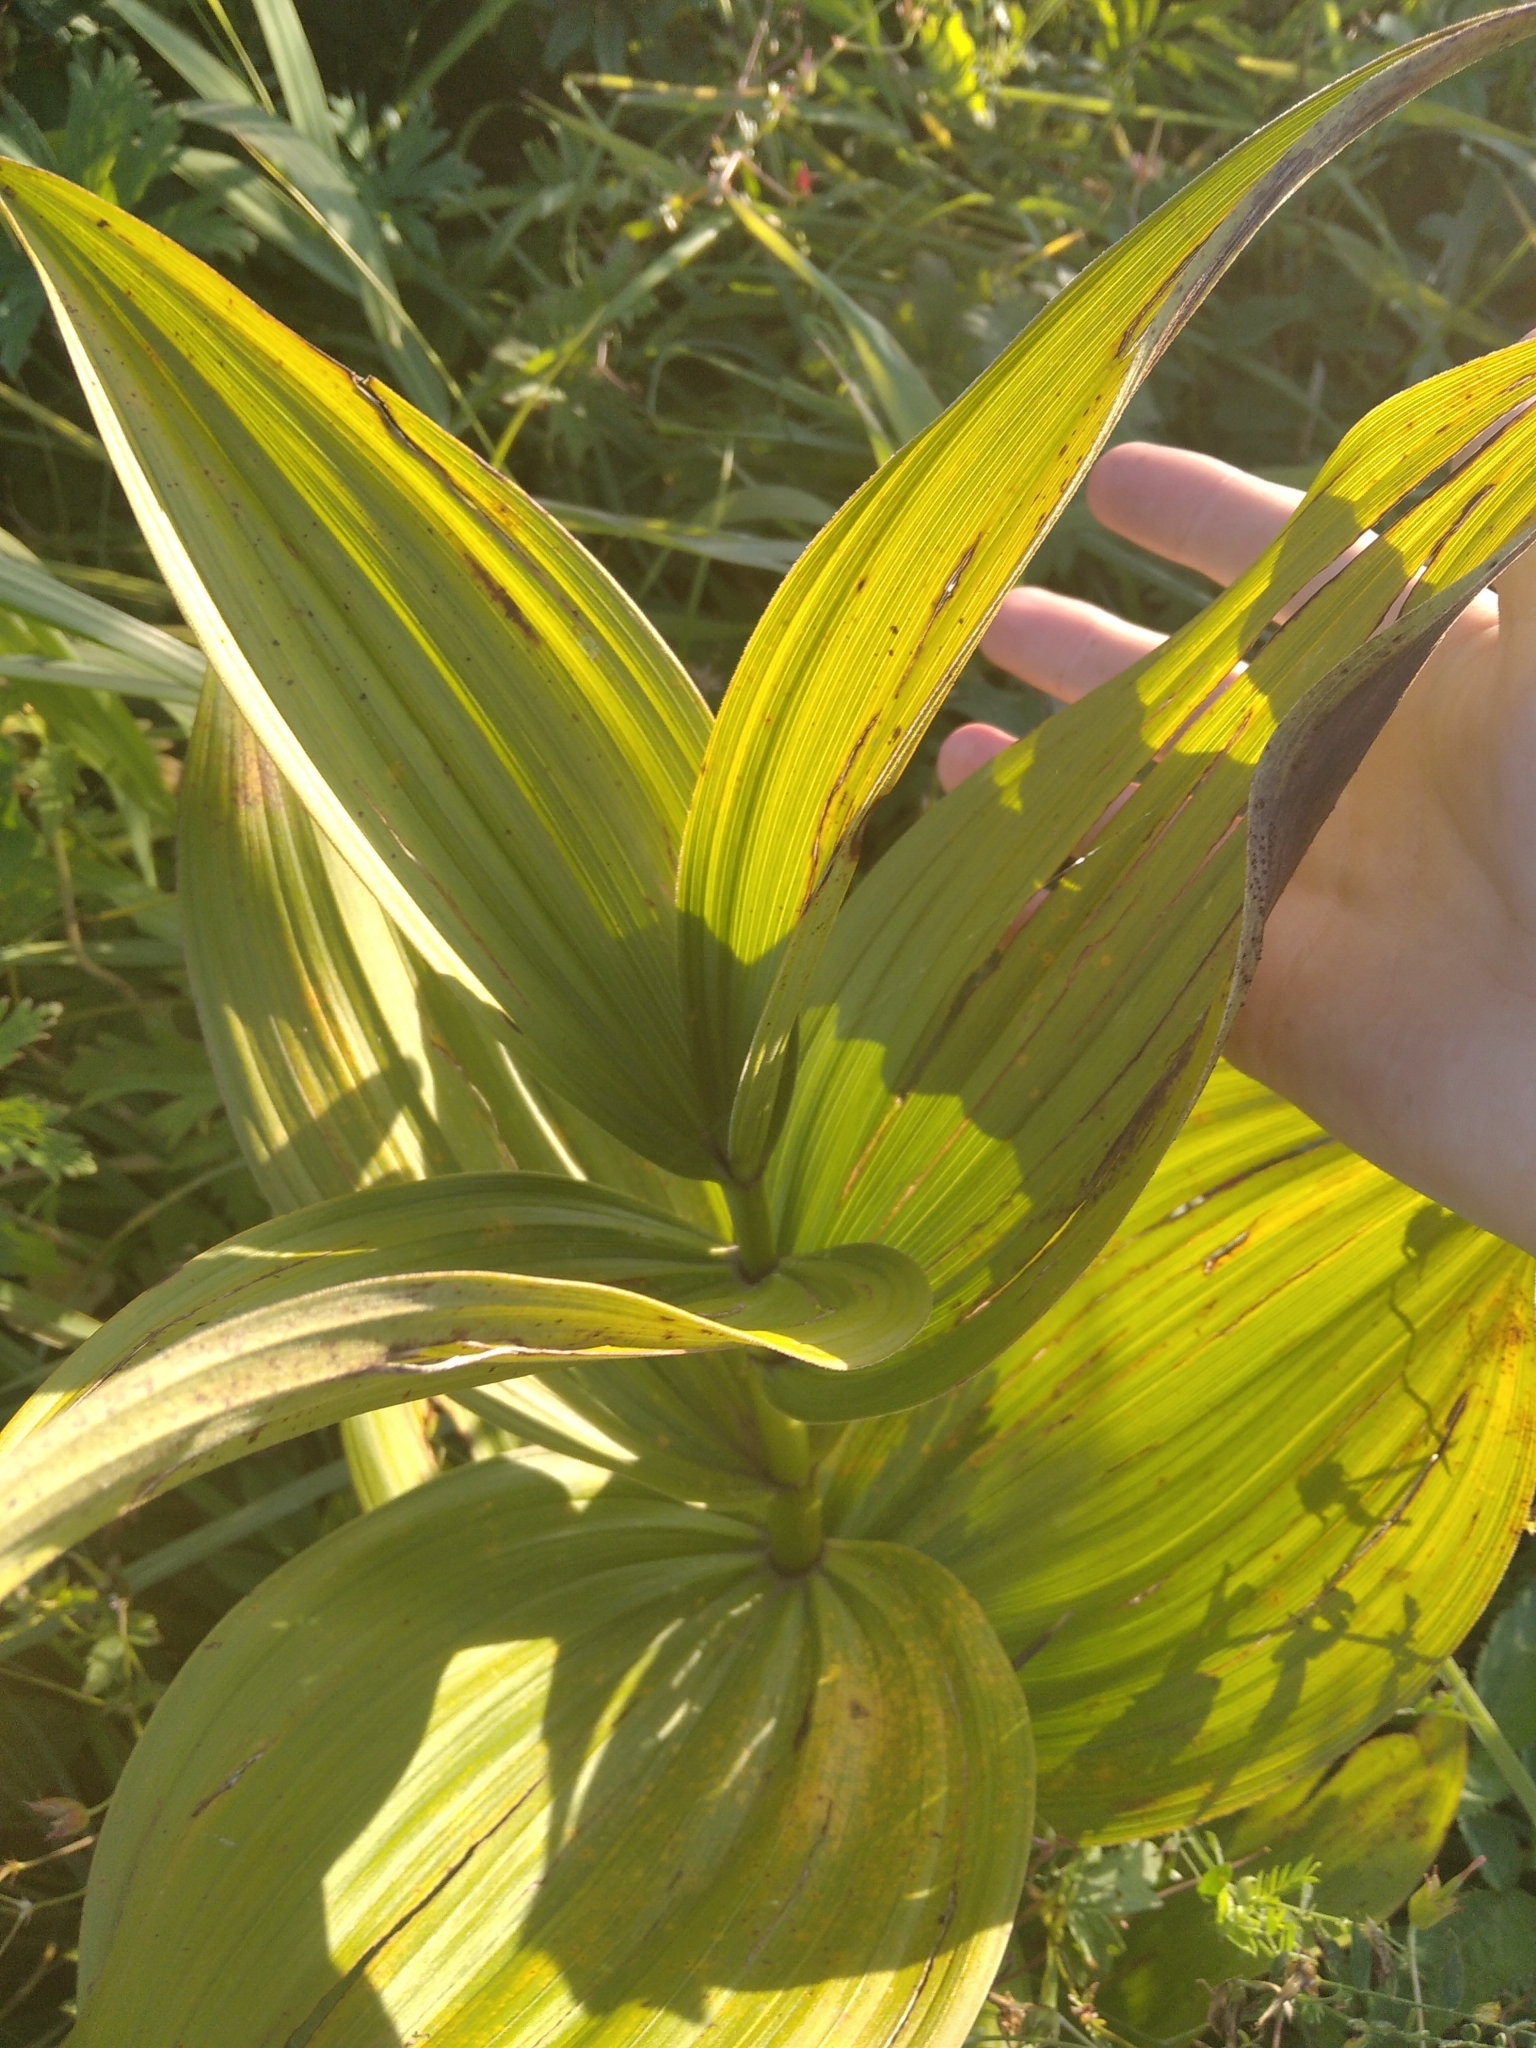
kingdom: Plantae
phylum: Tracheophyta
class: Liliopsida
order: Liliales
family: Melanthiaceae
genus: Veratrum
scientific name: Veratrum lobelianum
